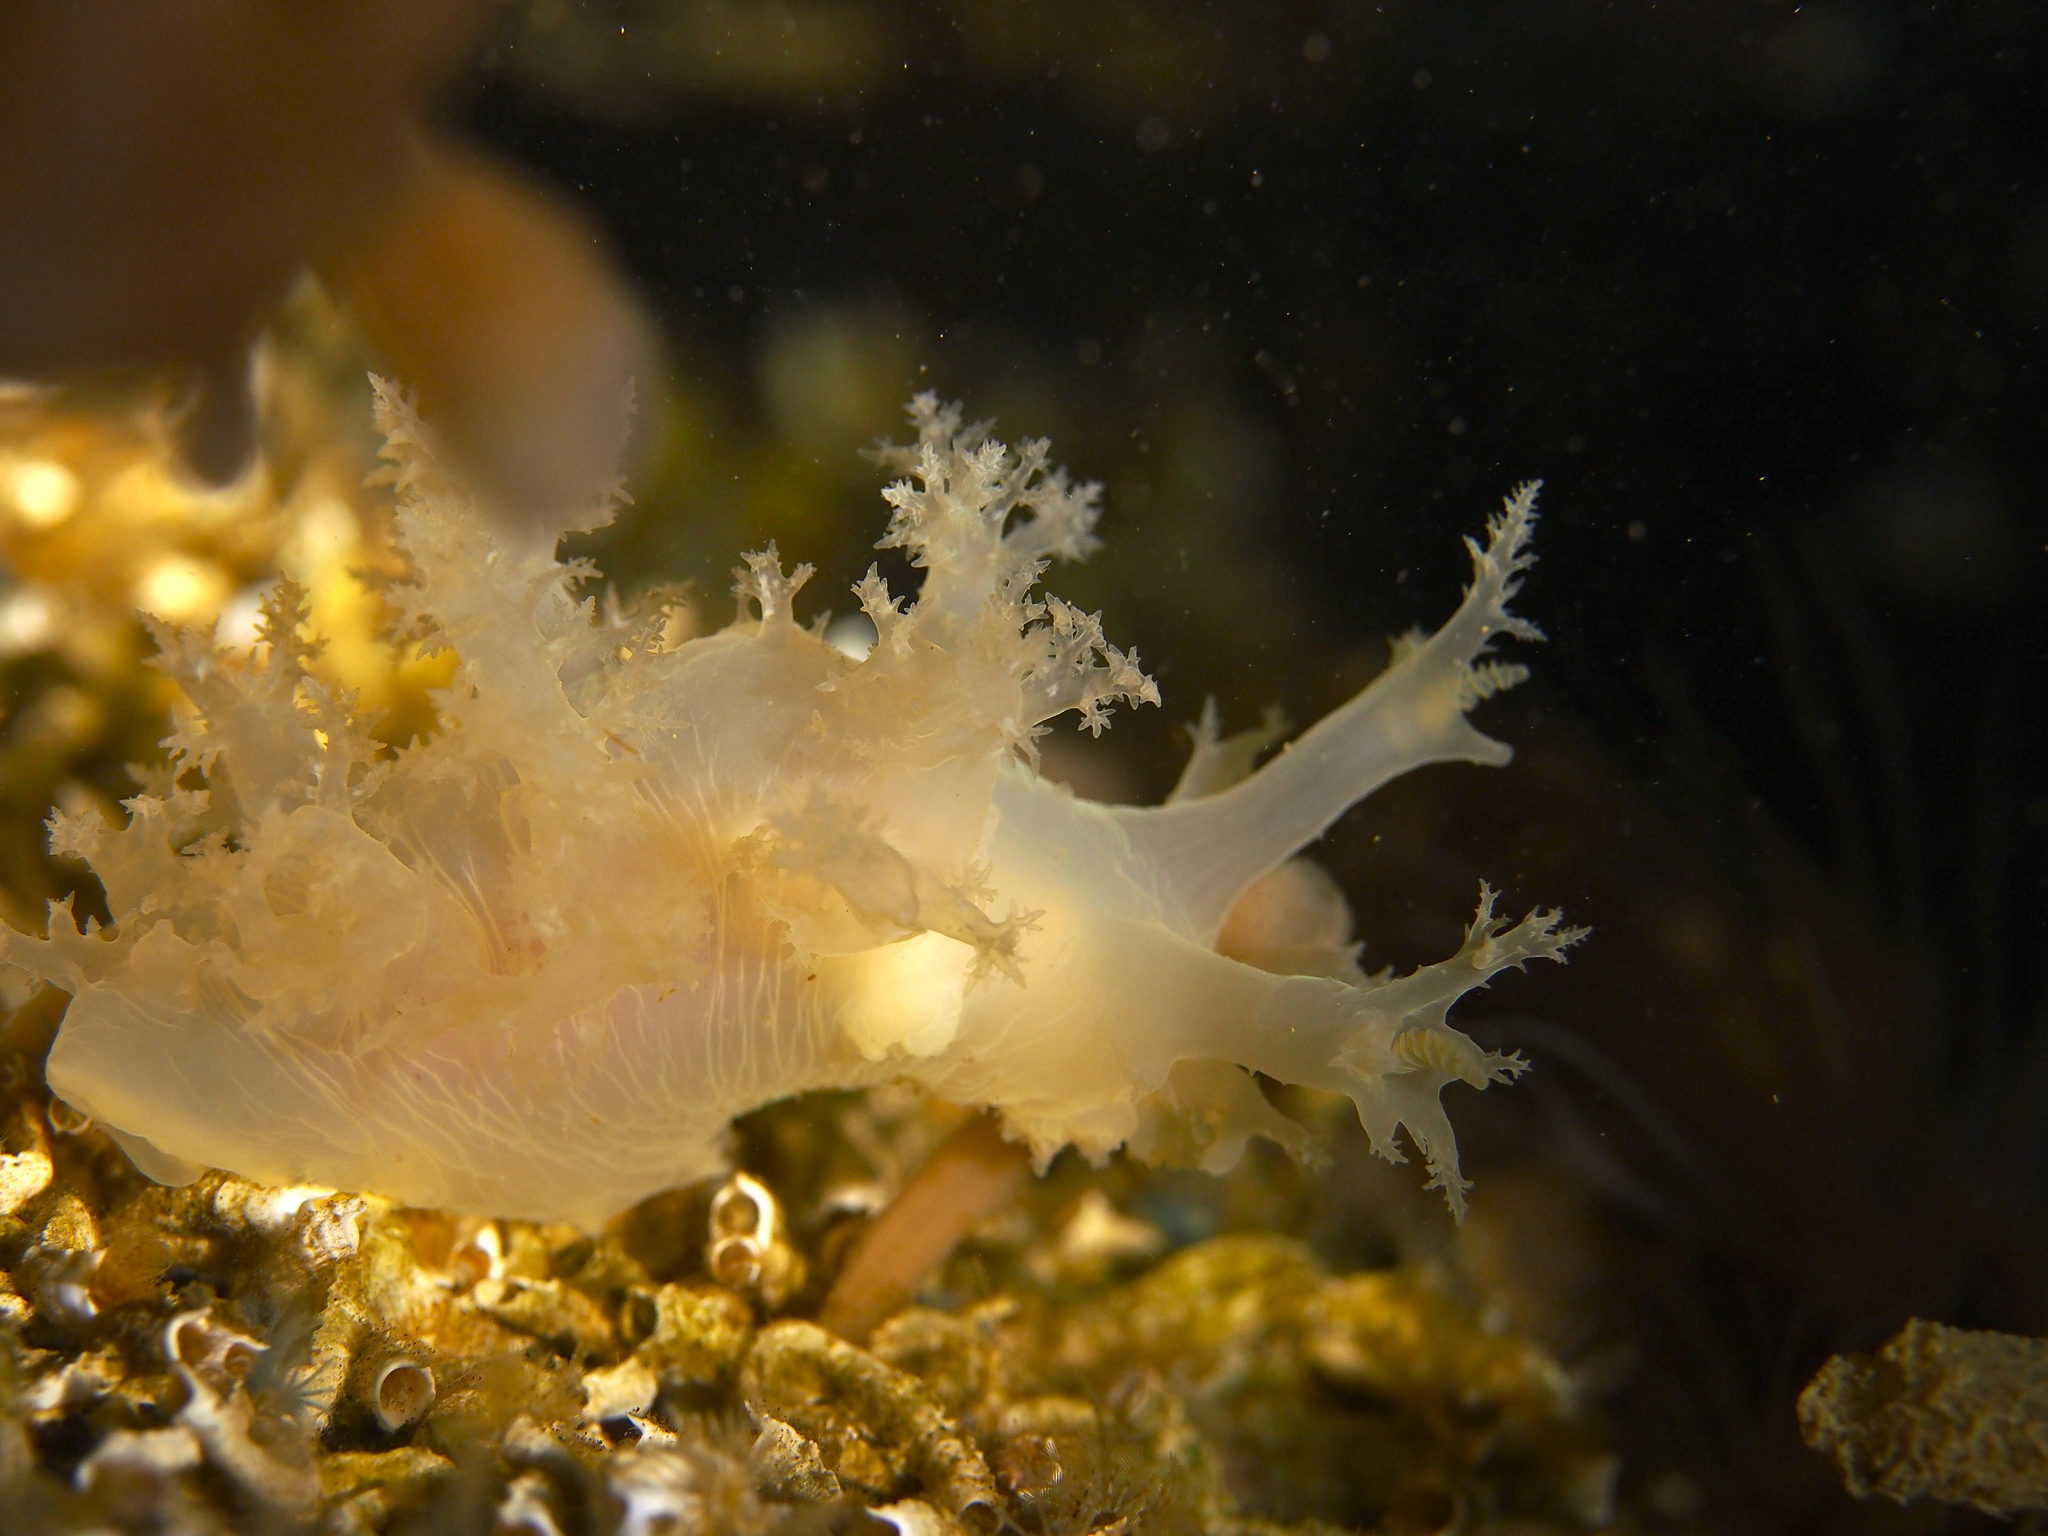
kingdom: Animalia
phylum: Mollusca
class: Gastropoda
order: Nudibranchia
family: Dendronotidae
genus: Dendronotus
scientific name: Dendronotus lacteus
